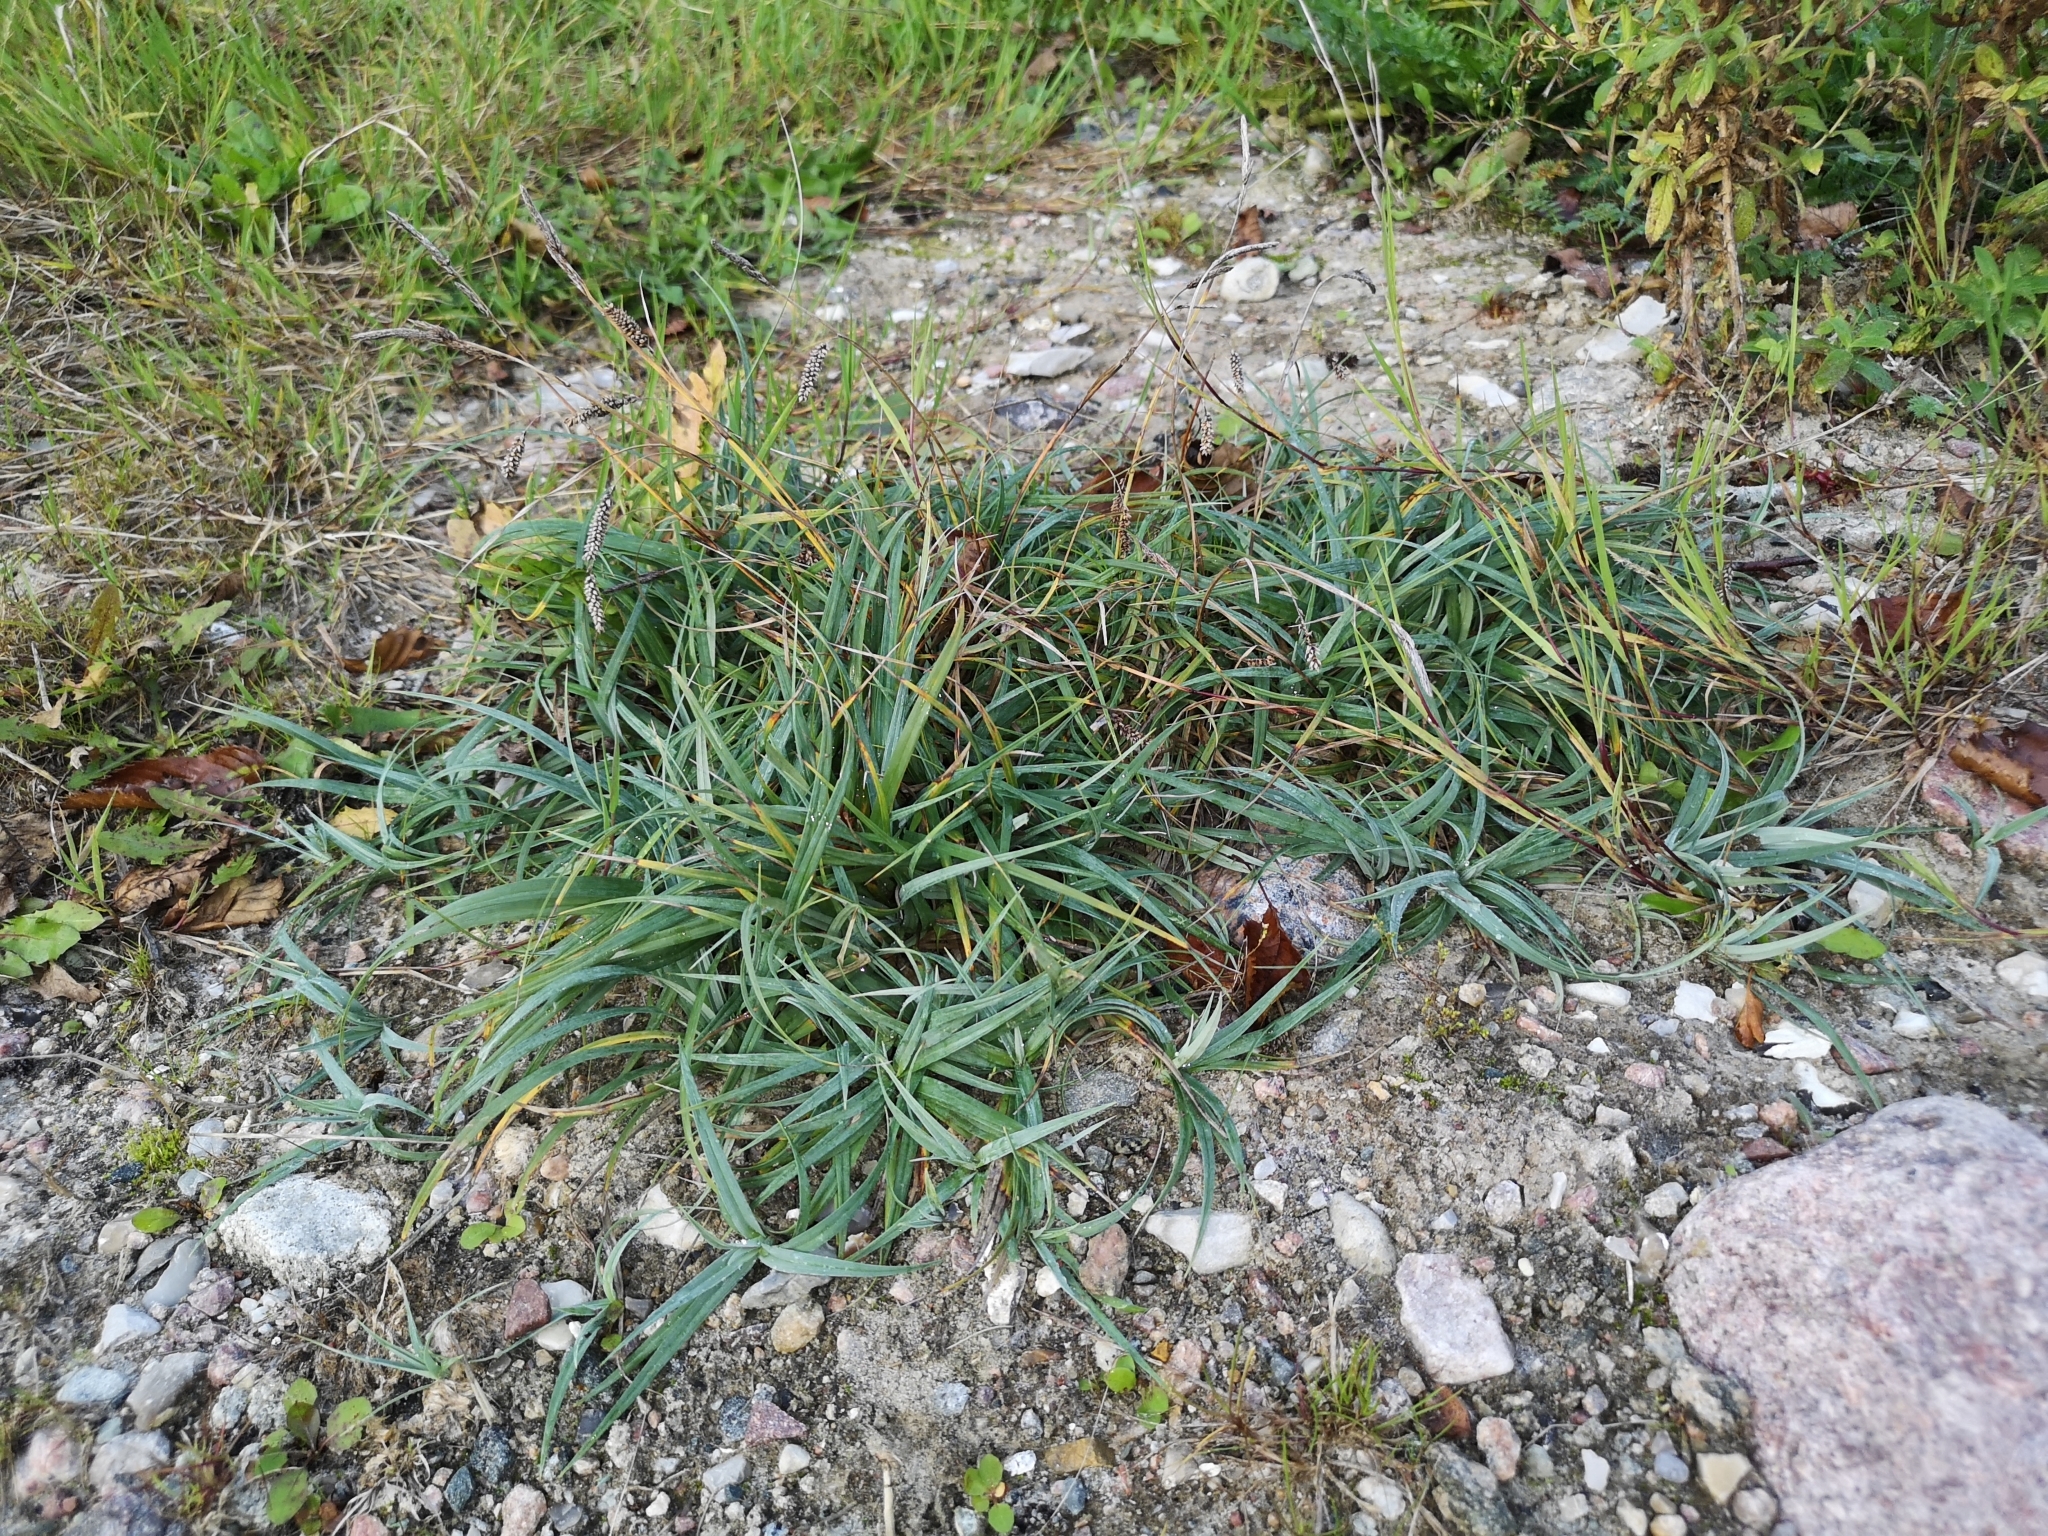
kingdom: Plantae
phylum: Tracheophyta
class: Liliopsida
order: Poales
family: Cyperaceae
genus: Carex
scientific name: Carex flacca
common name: Glaucous sedge
